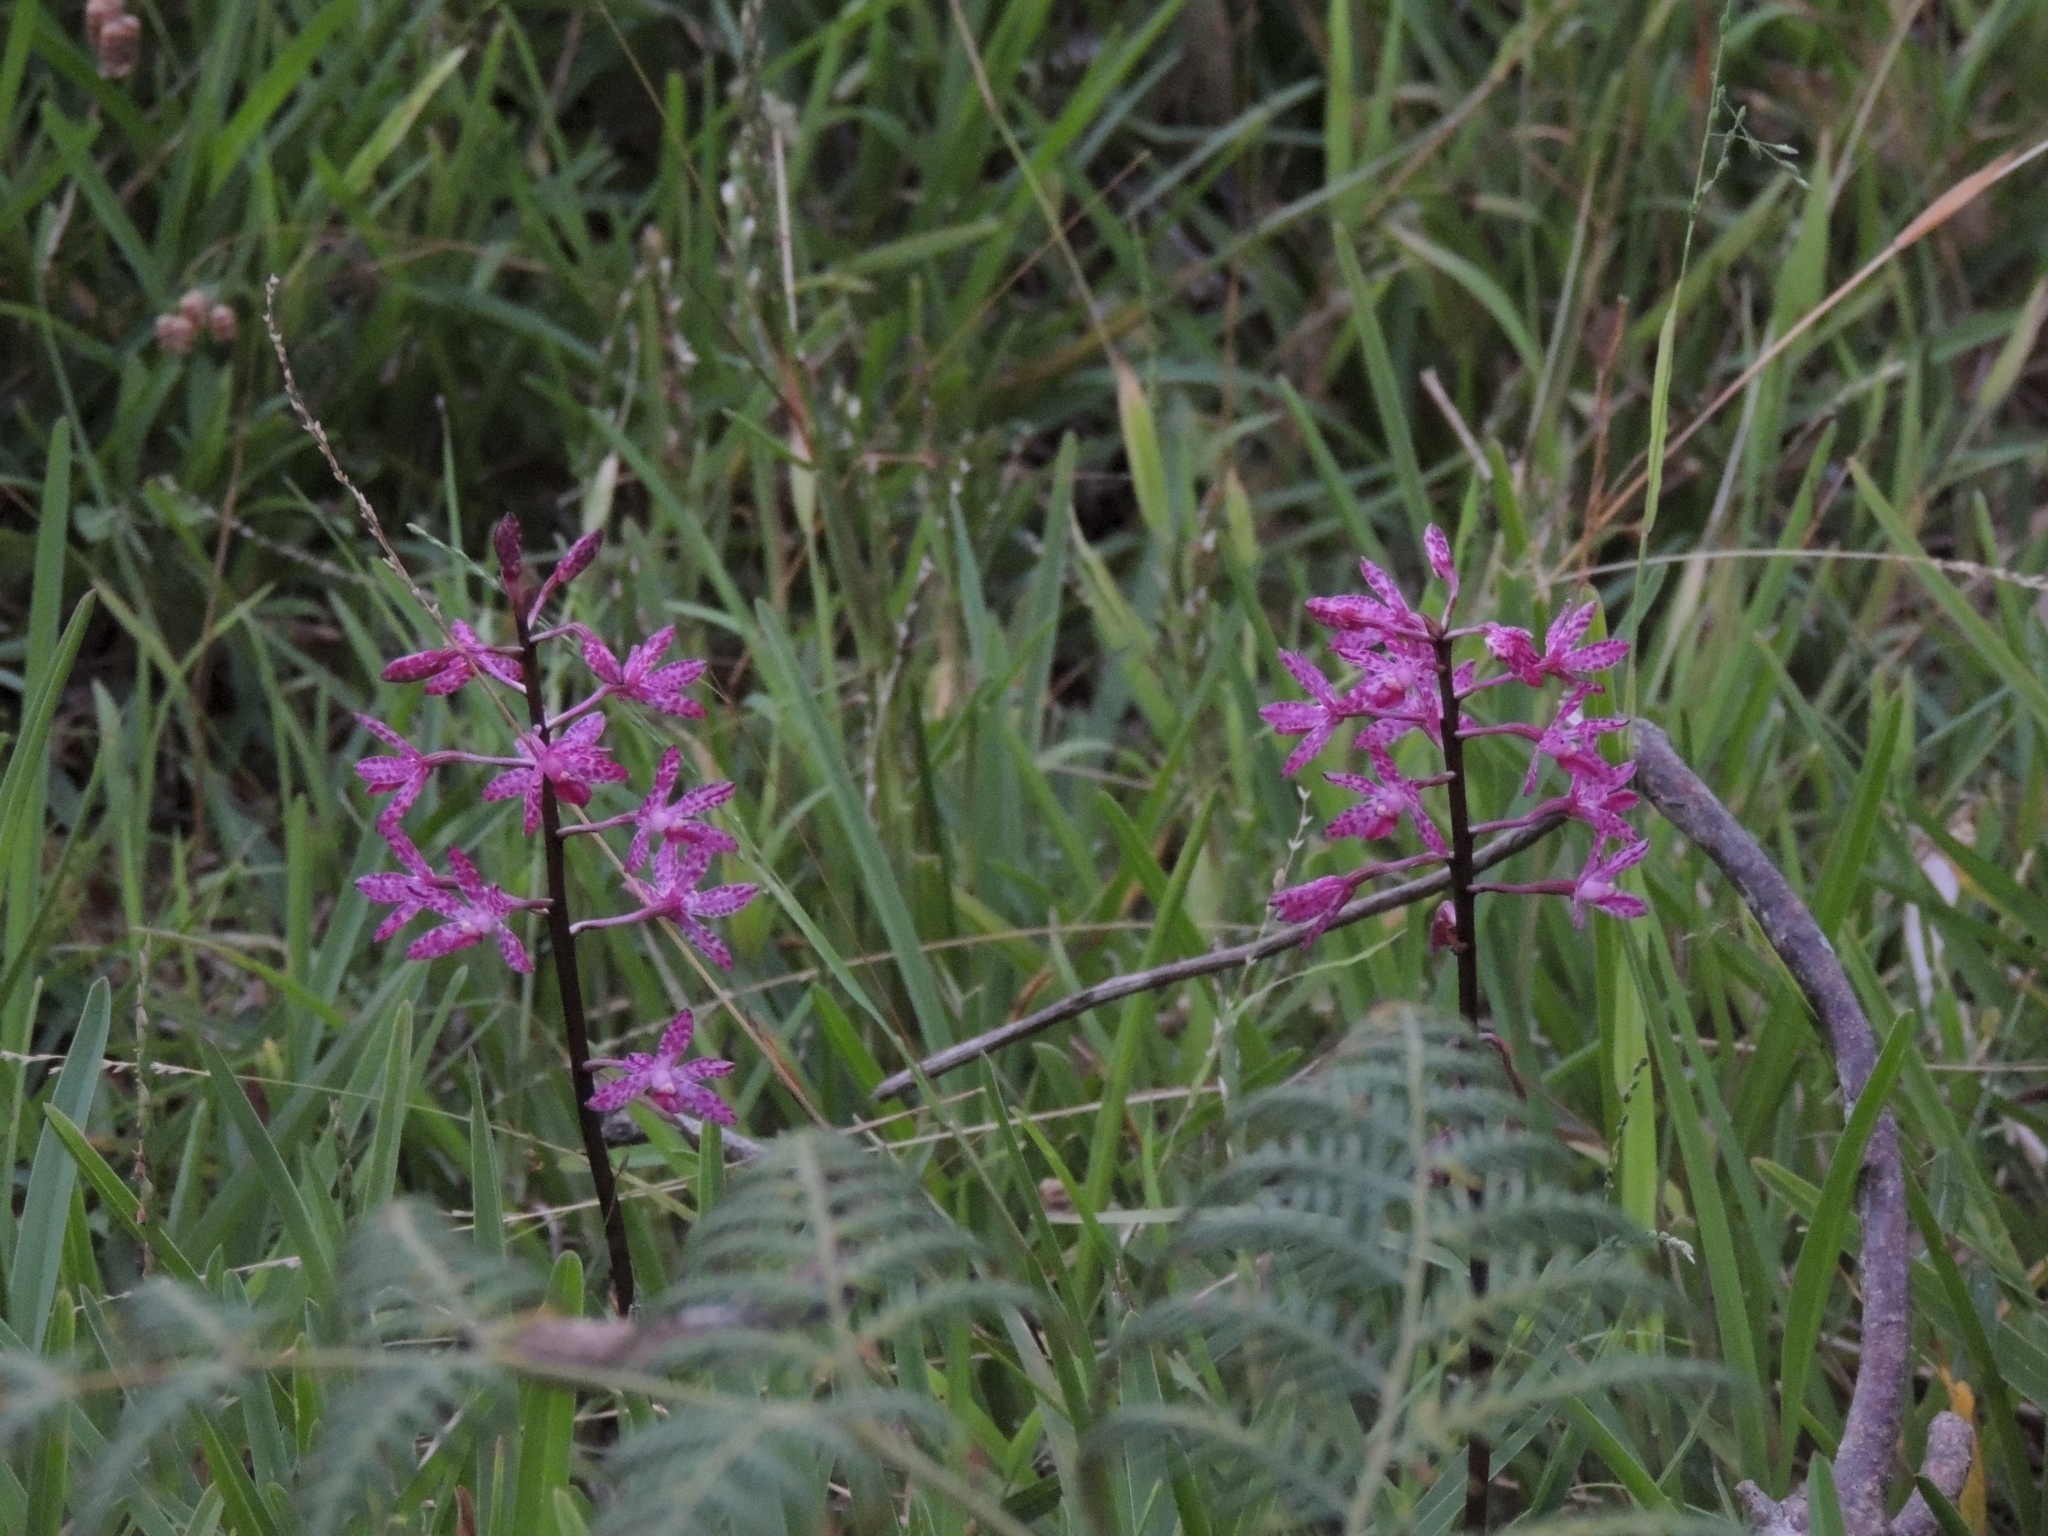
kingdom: Plantae
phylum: Tracheophyta
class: Liliopsida
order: Asparagales
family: Orchidaceae
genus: Dipodium
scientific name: Dipodium squamatum
